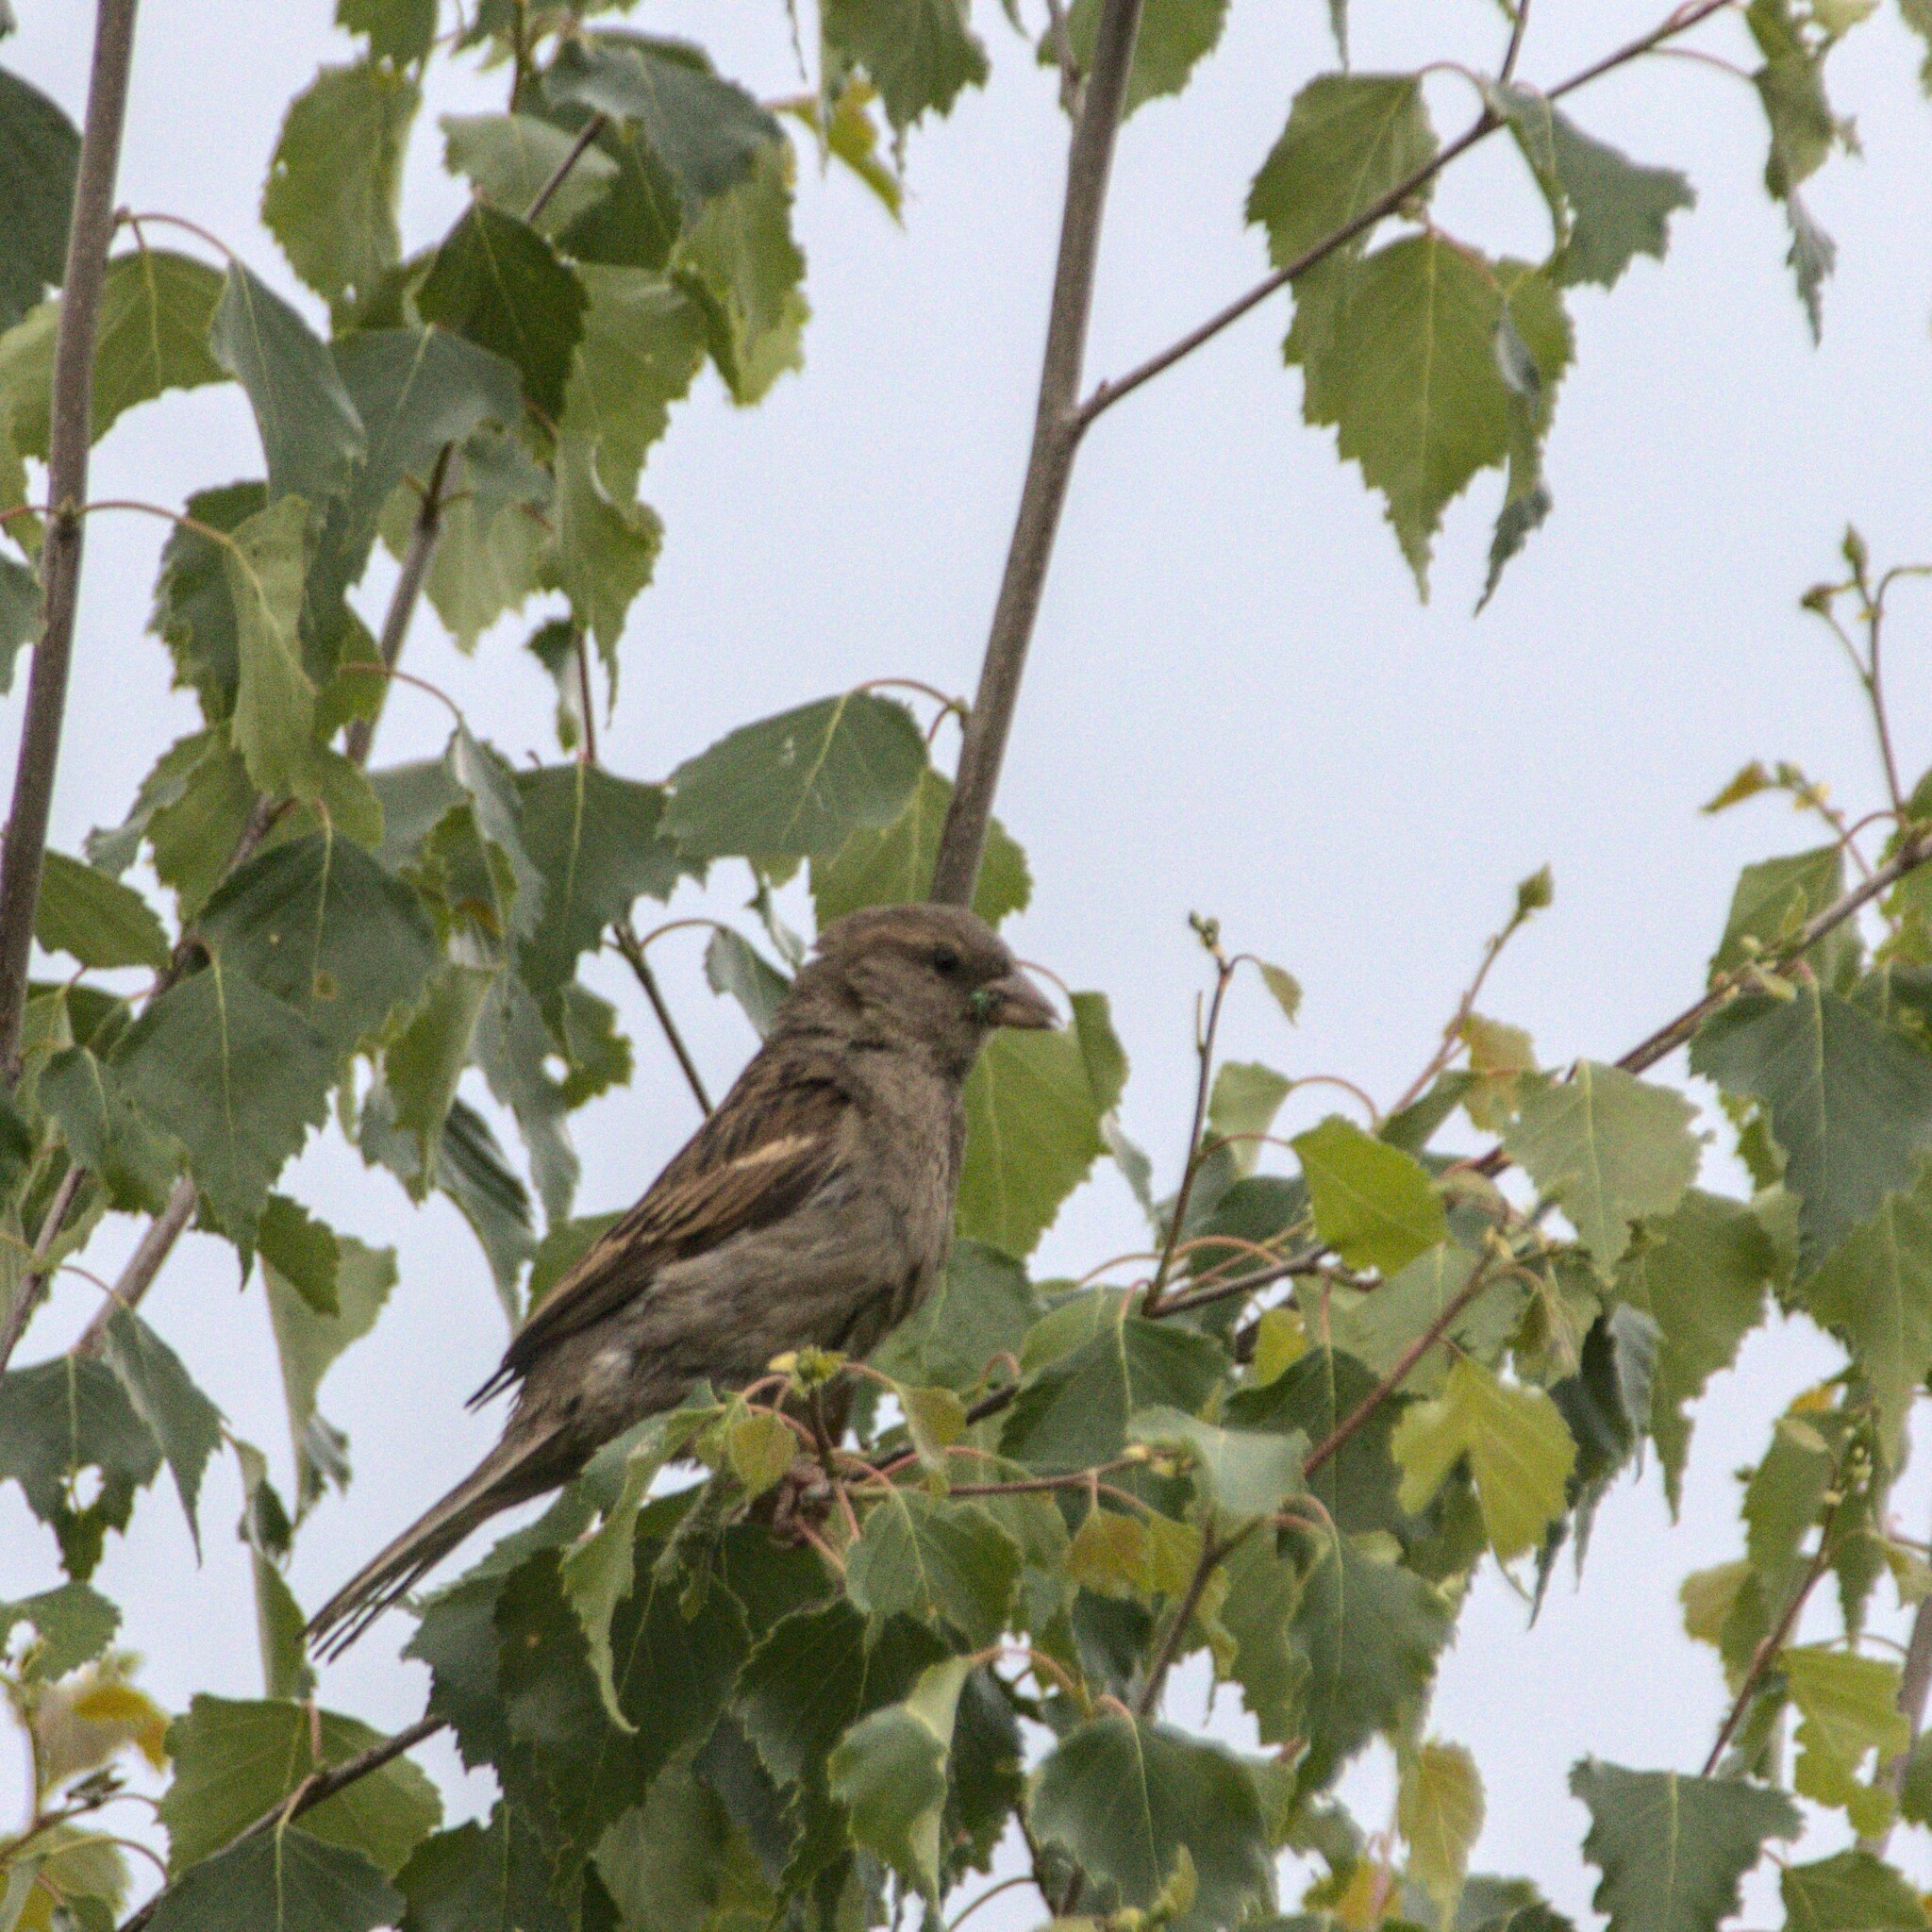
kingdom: Animalia
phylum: Chordata
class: Aves
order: Passeriformes
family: Passeridae
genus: Passer
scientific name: Passer domesticus
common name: House sparrow
